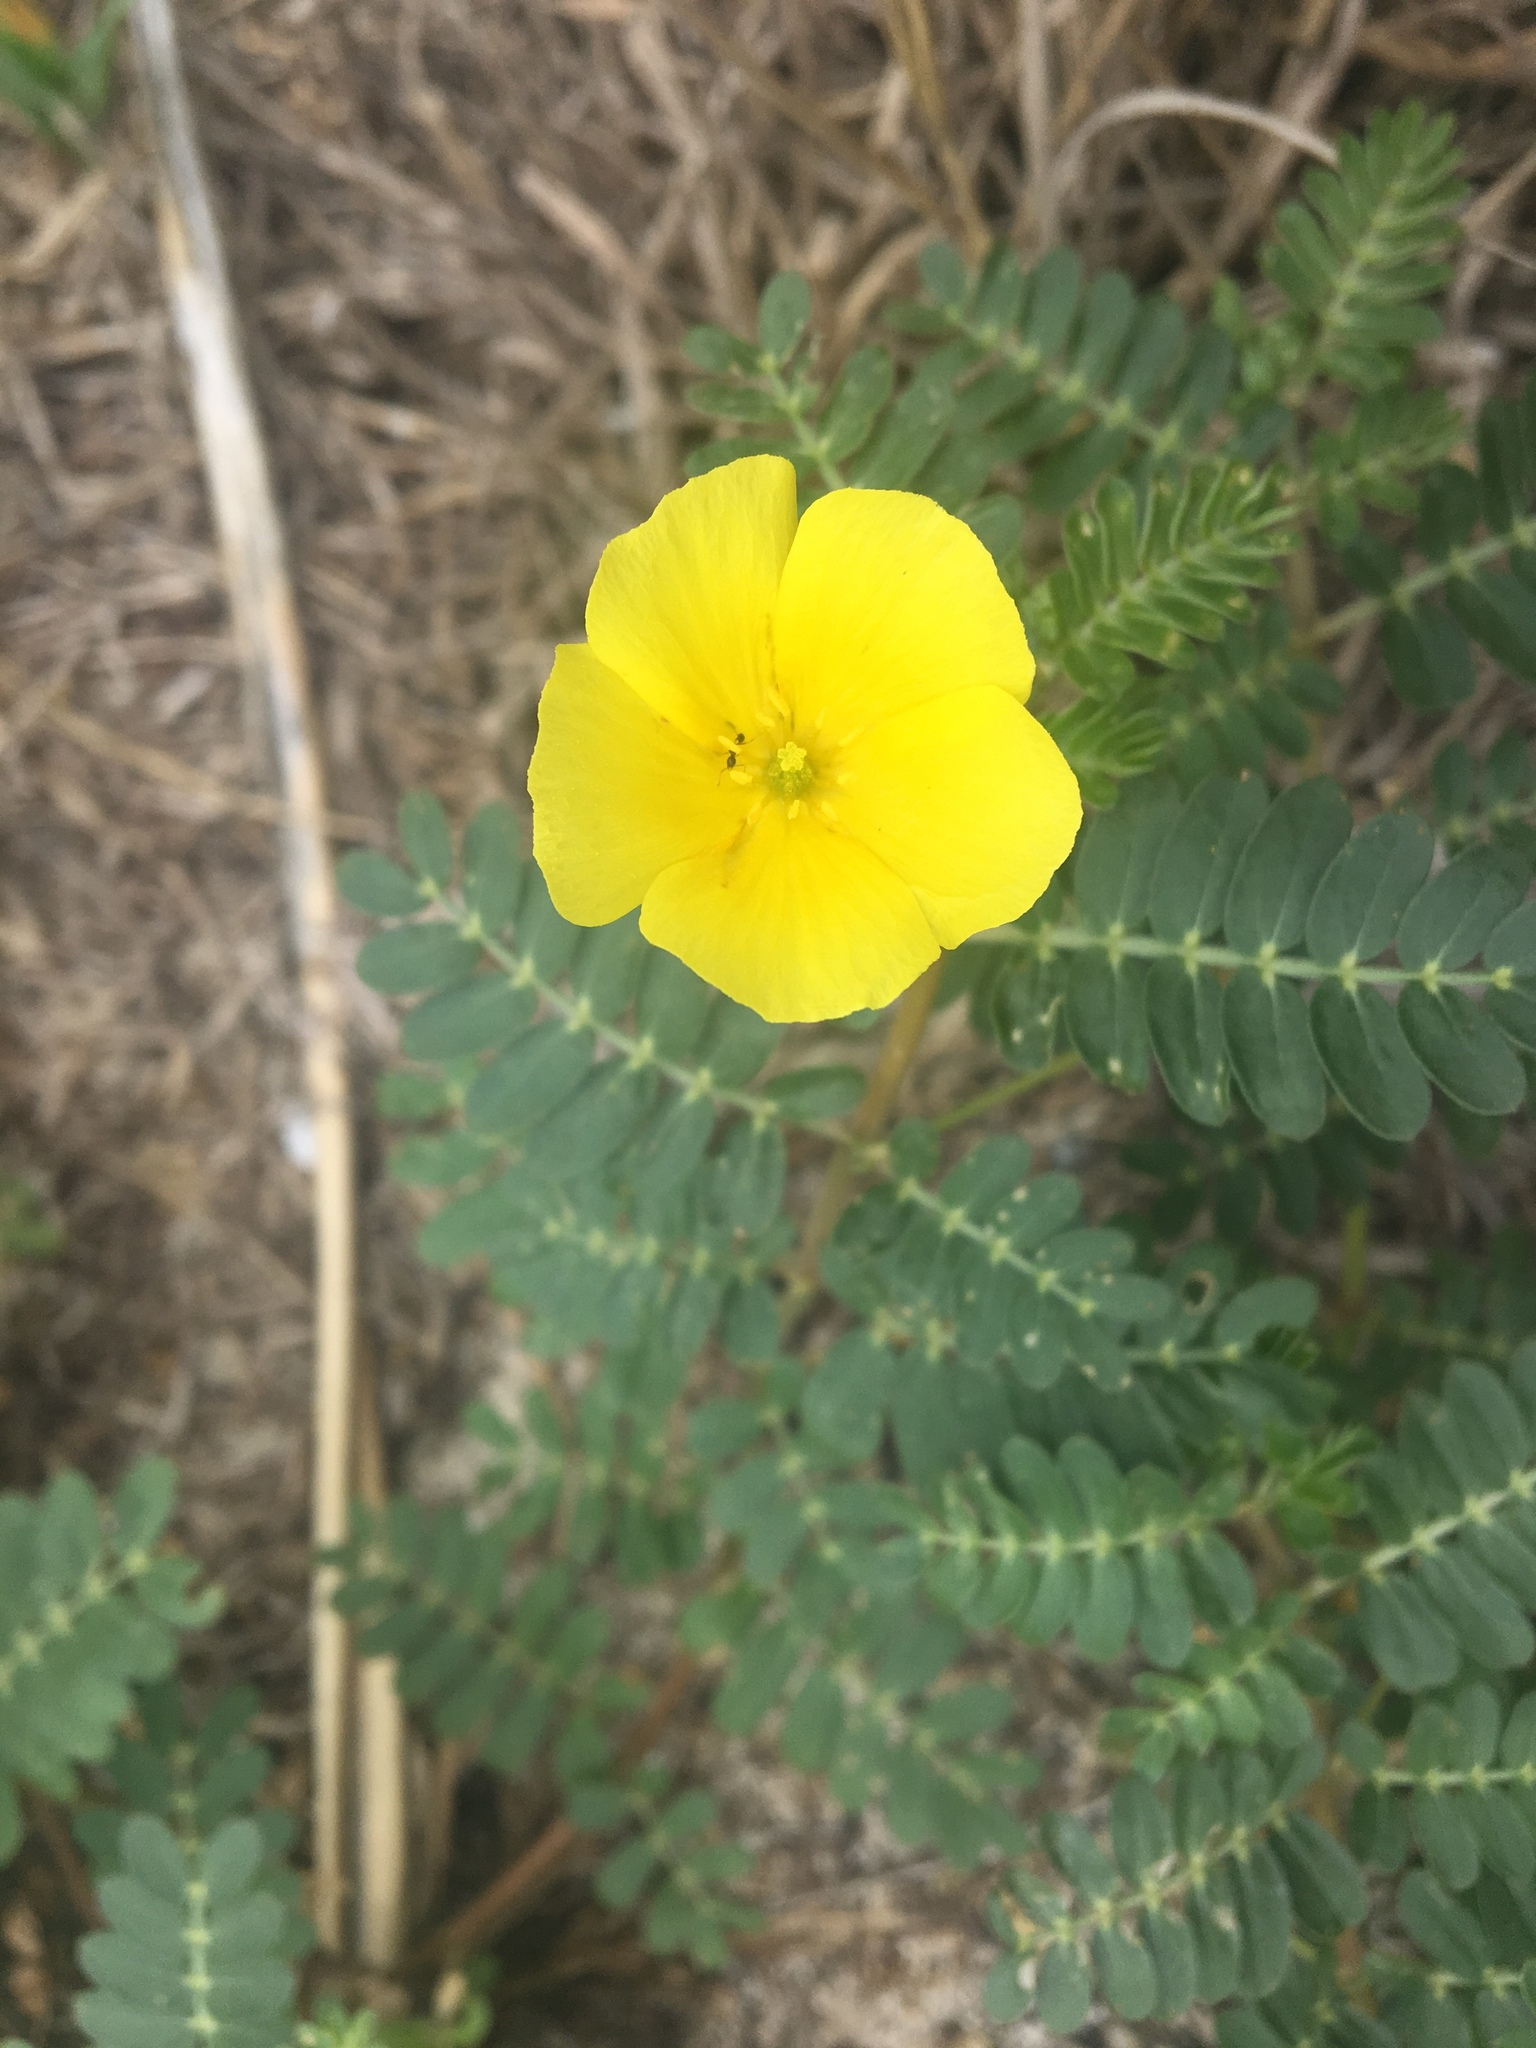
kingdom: Plantae
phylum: Tracheophyta
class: Magnoliopsida
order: Zygophyllales
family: Zygophyllaceae
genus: Tribulus
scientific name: Tribulus cistoides
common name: Jamaican feverplant
